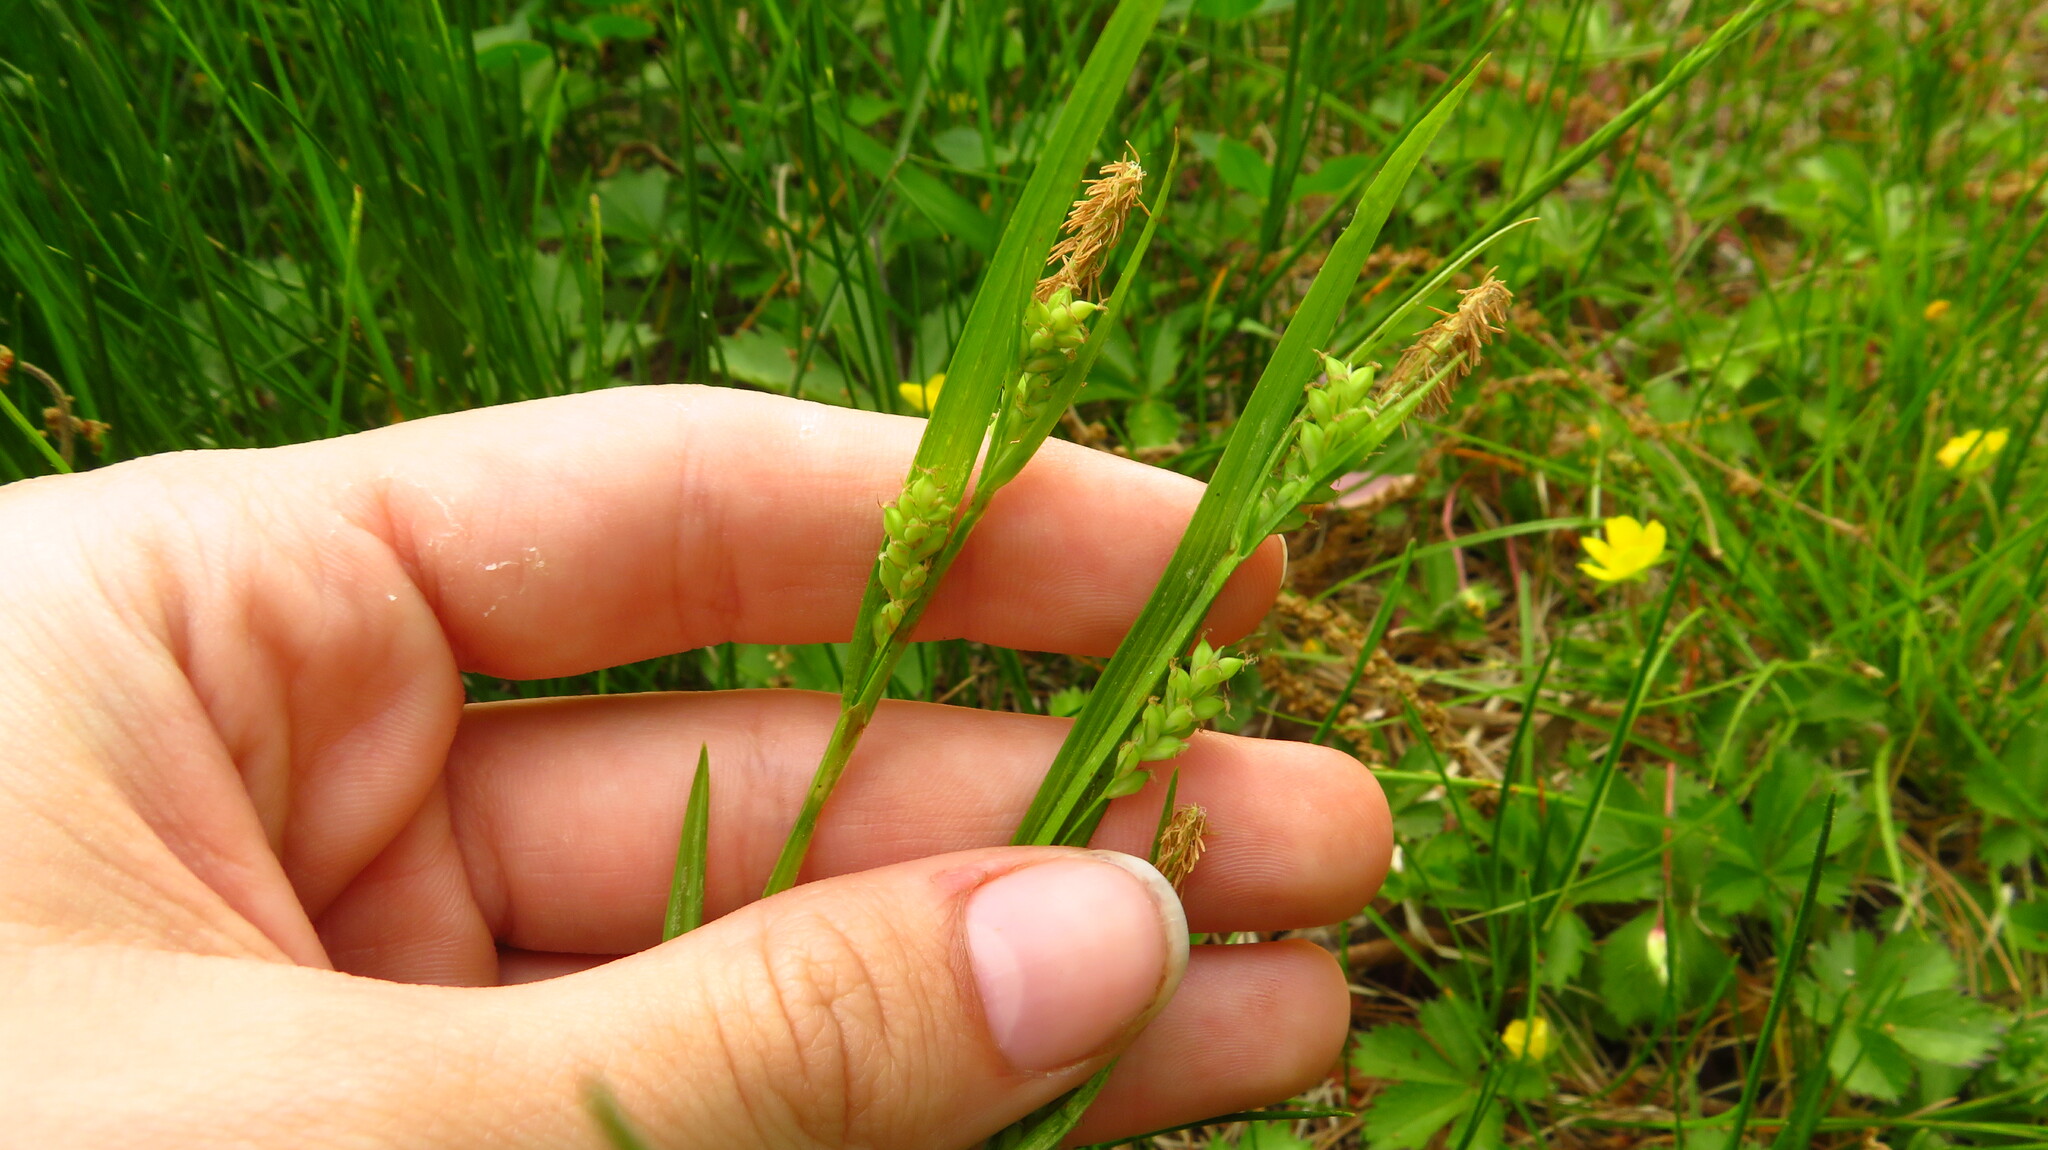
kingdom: Plantae
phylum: Tracheophyta
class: Liliopsida
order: Poales
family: Cyperaceae
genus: Carex
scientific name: Carex blanda
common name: Bland sedge
